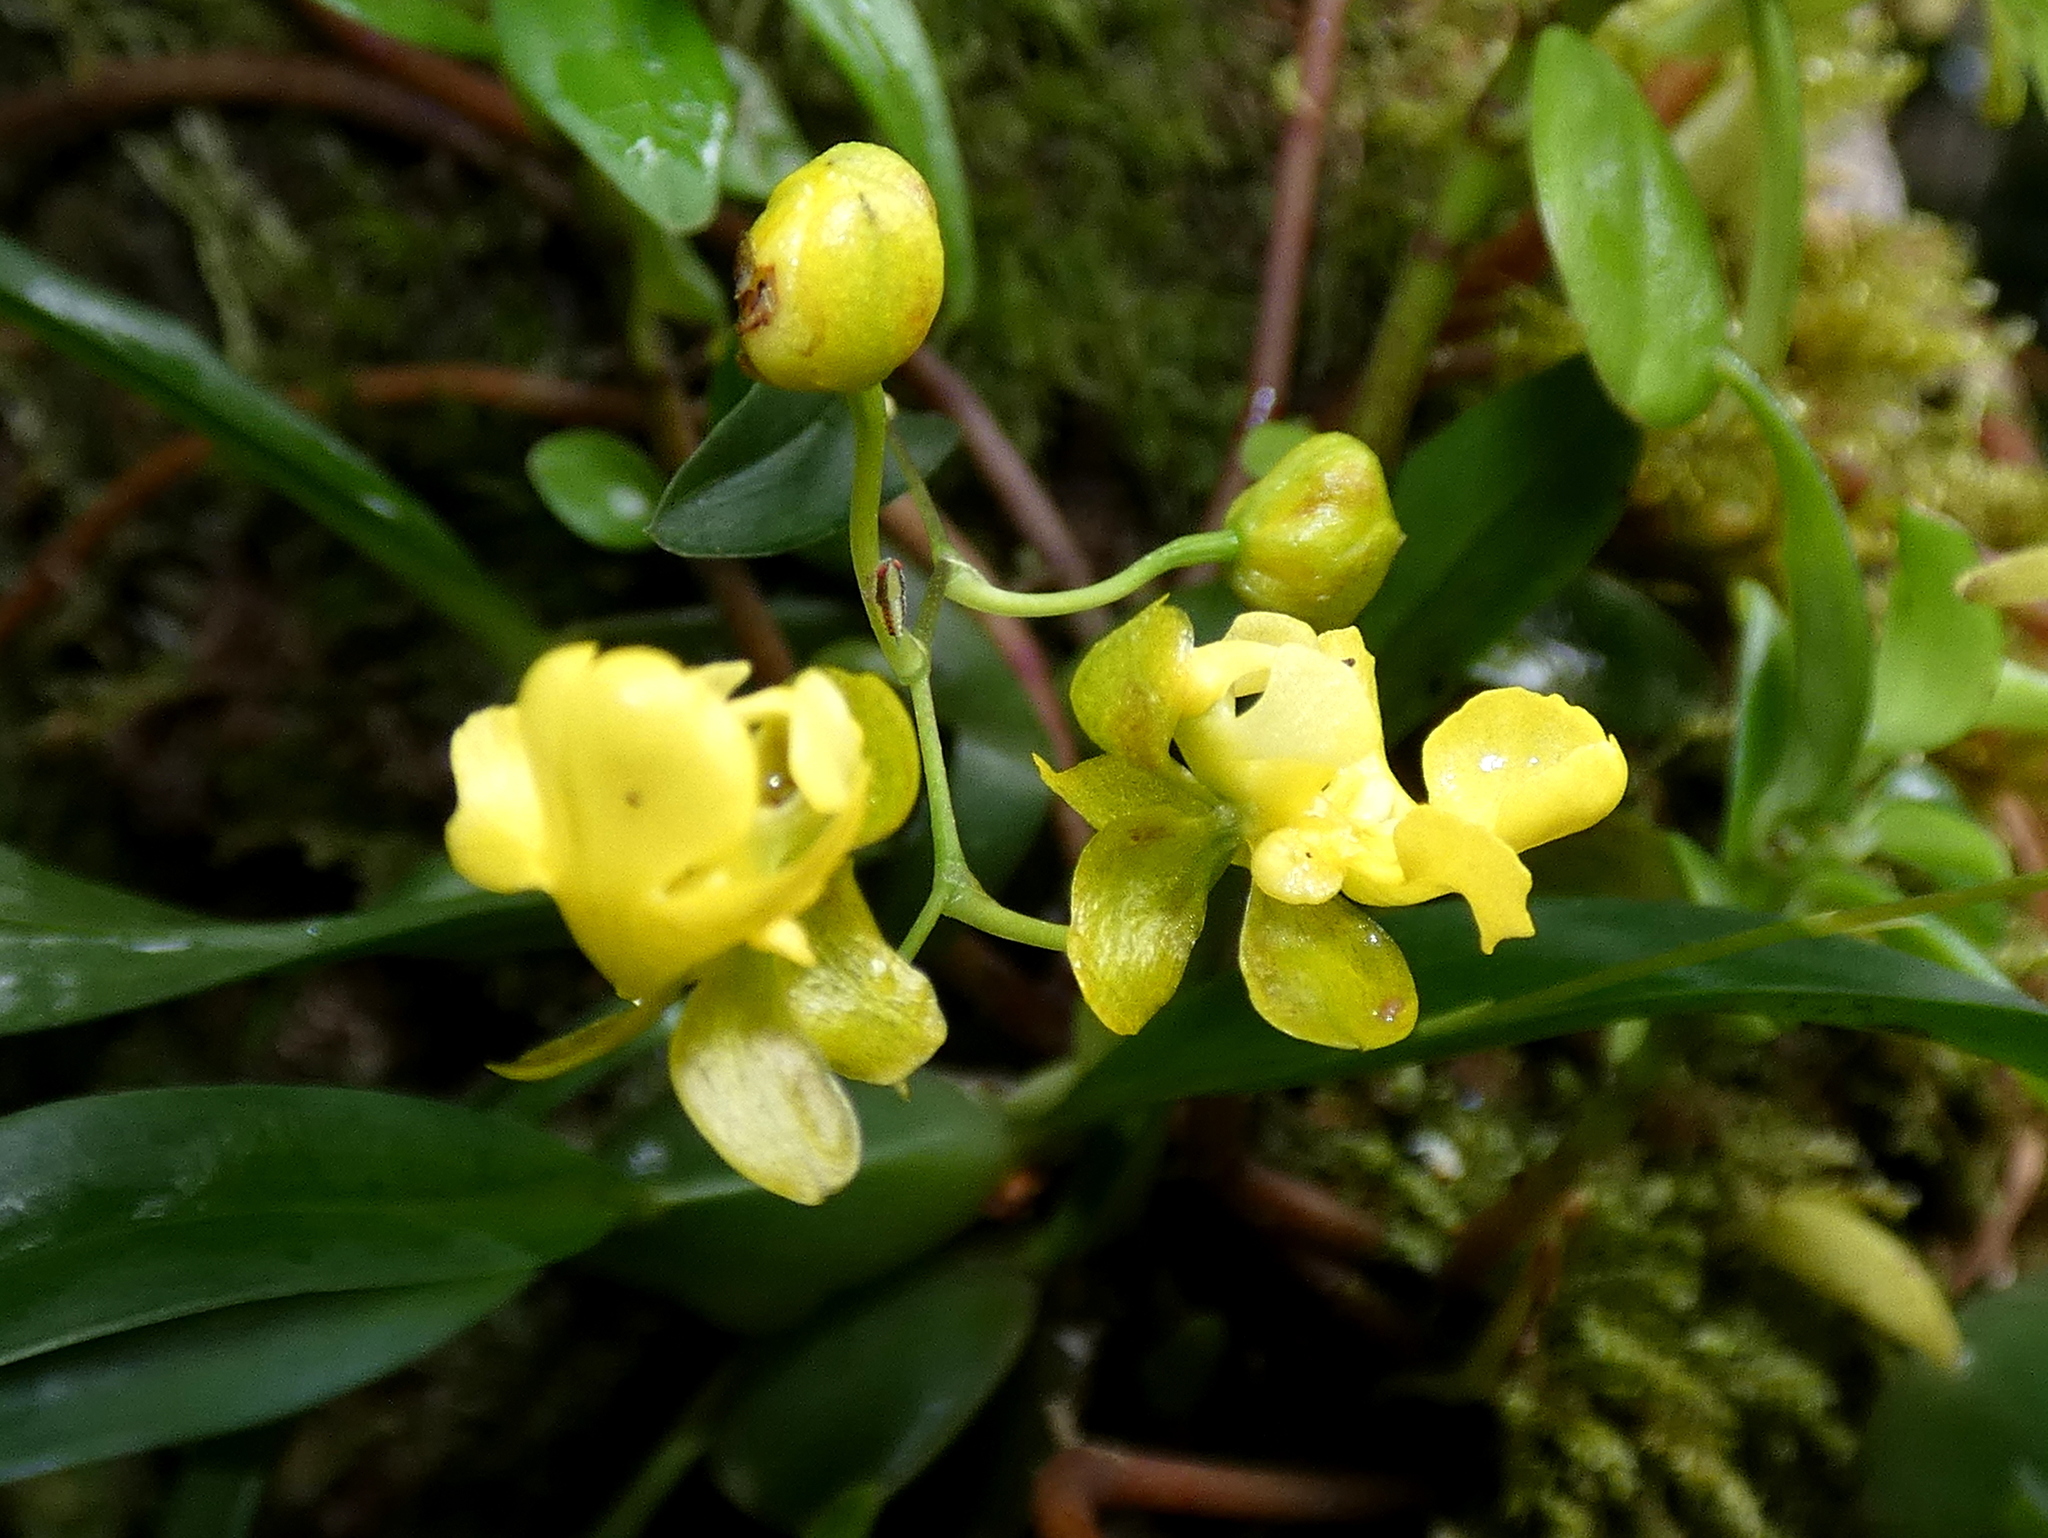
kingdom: Plantae
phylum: Tracheophyta
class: Liliopsida
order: Asparagales
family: Orchidaceae
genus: Oncidium
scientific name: Oncidium cheirophorum
